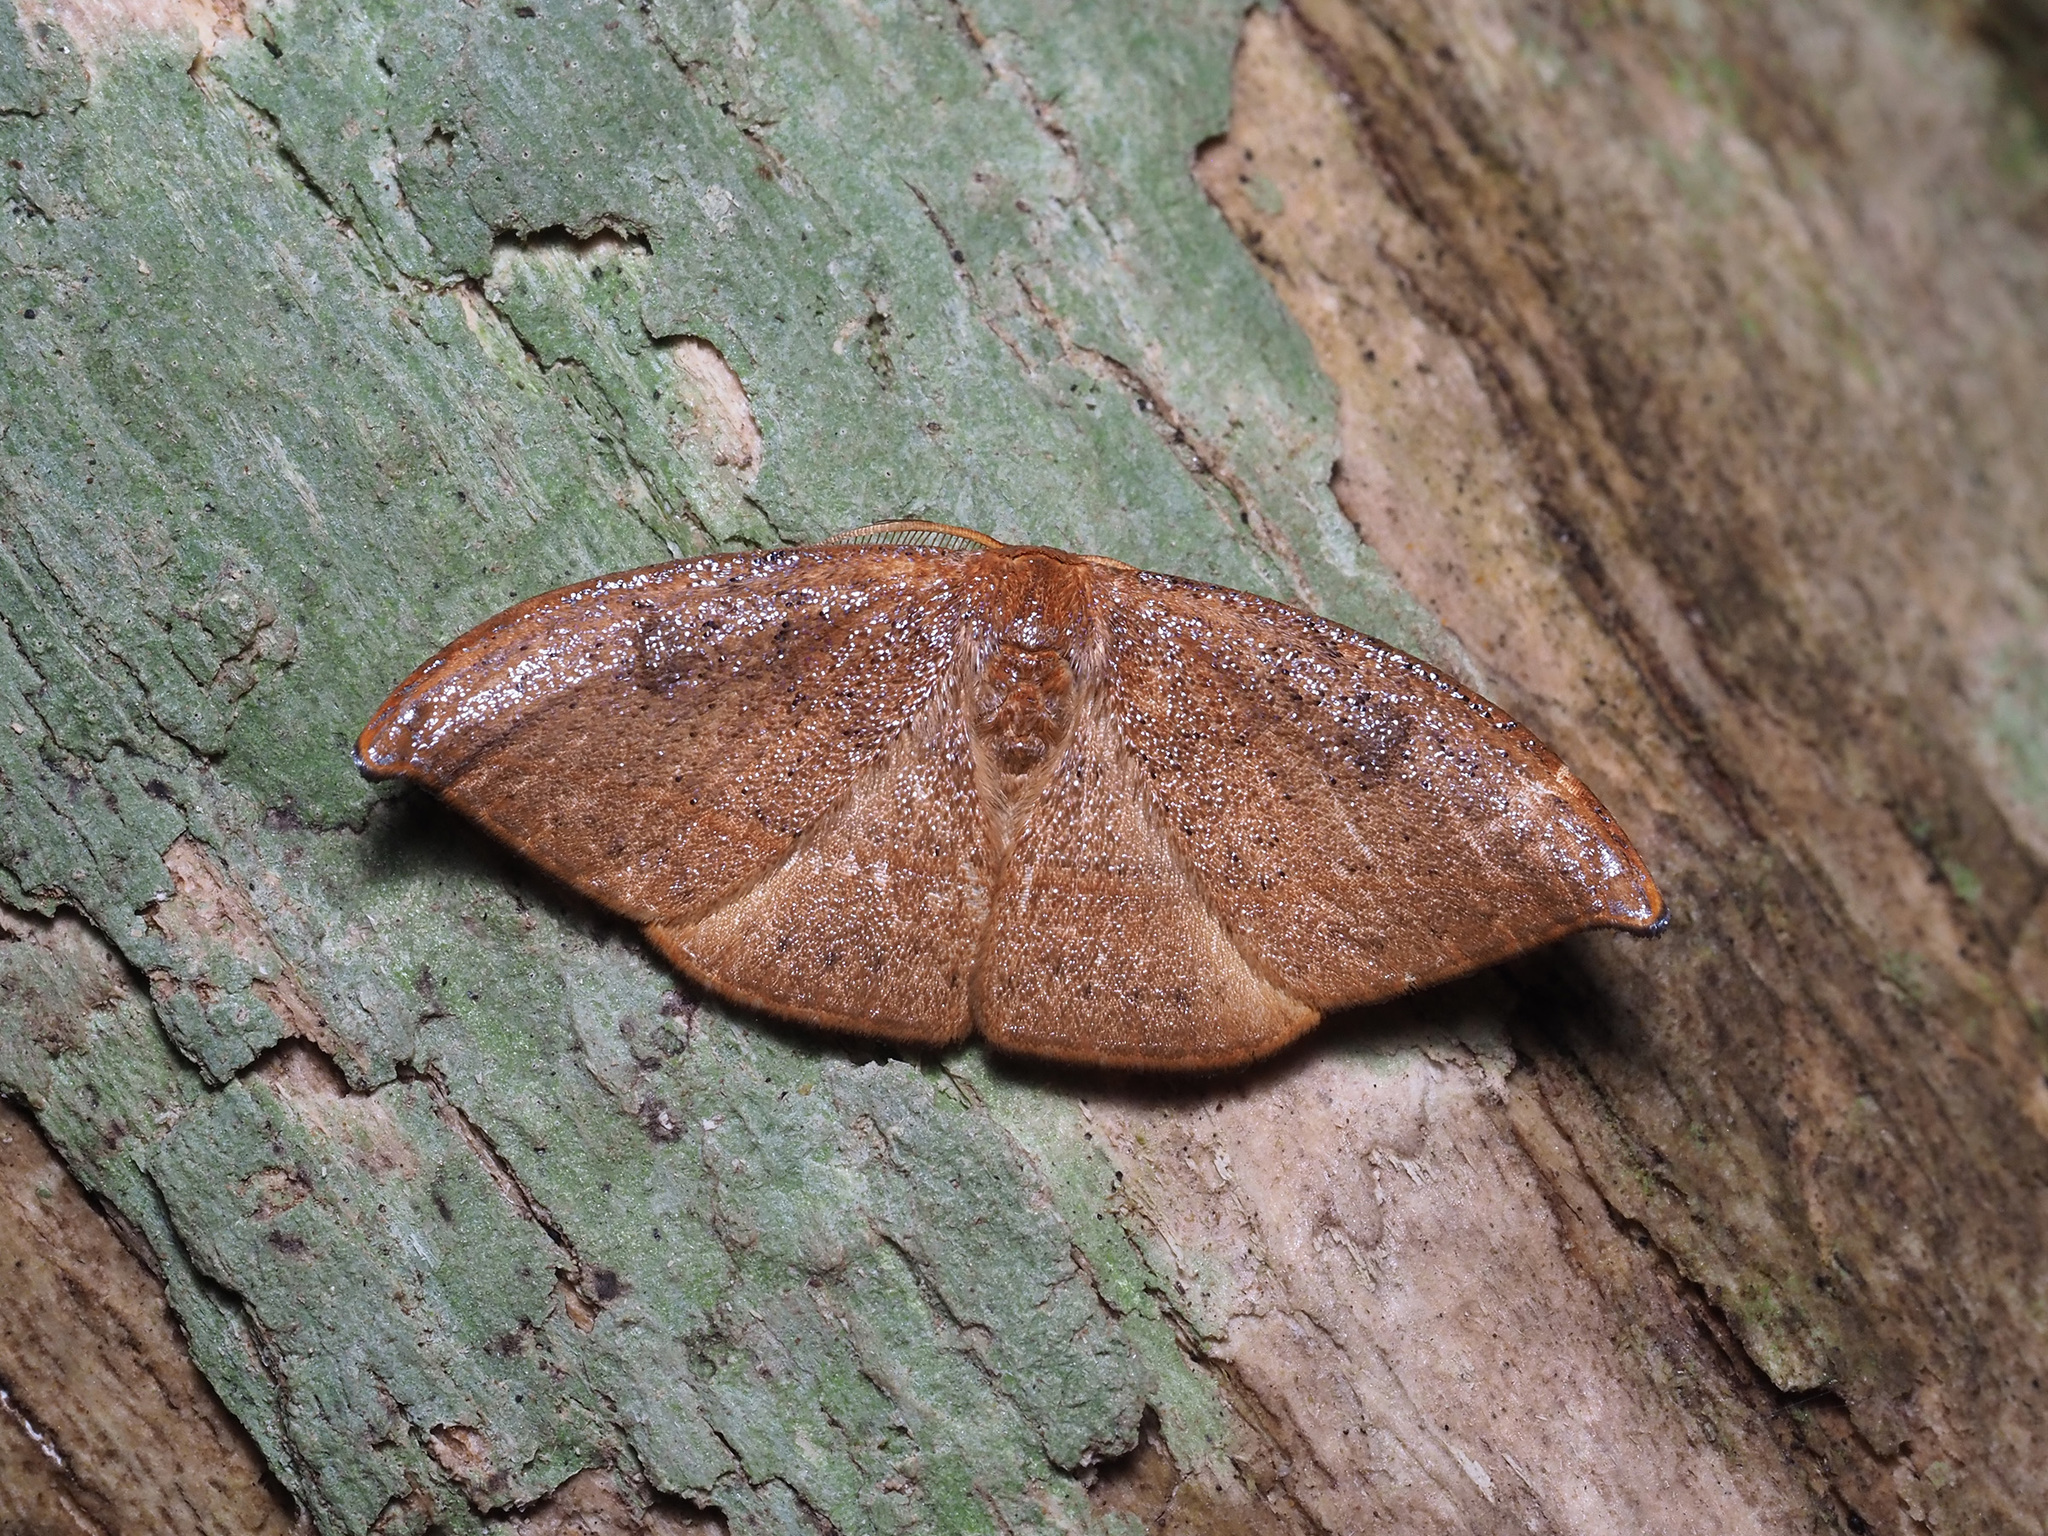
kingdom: Animalia
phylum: Arthropoda
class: Insecta
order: Lepidoptera
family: Drepanidae
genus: Callidrepana
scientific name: Callidrepana micacea
